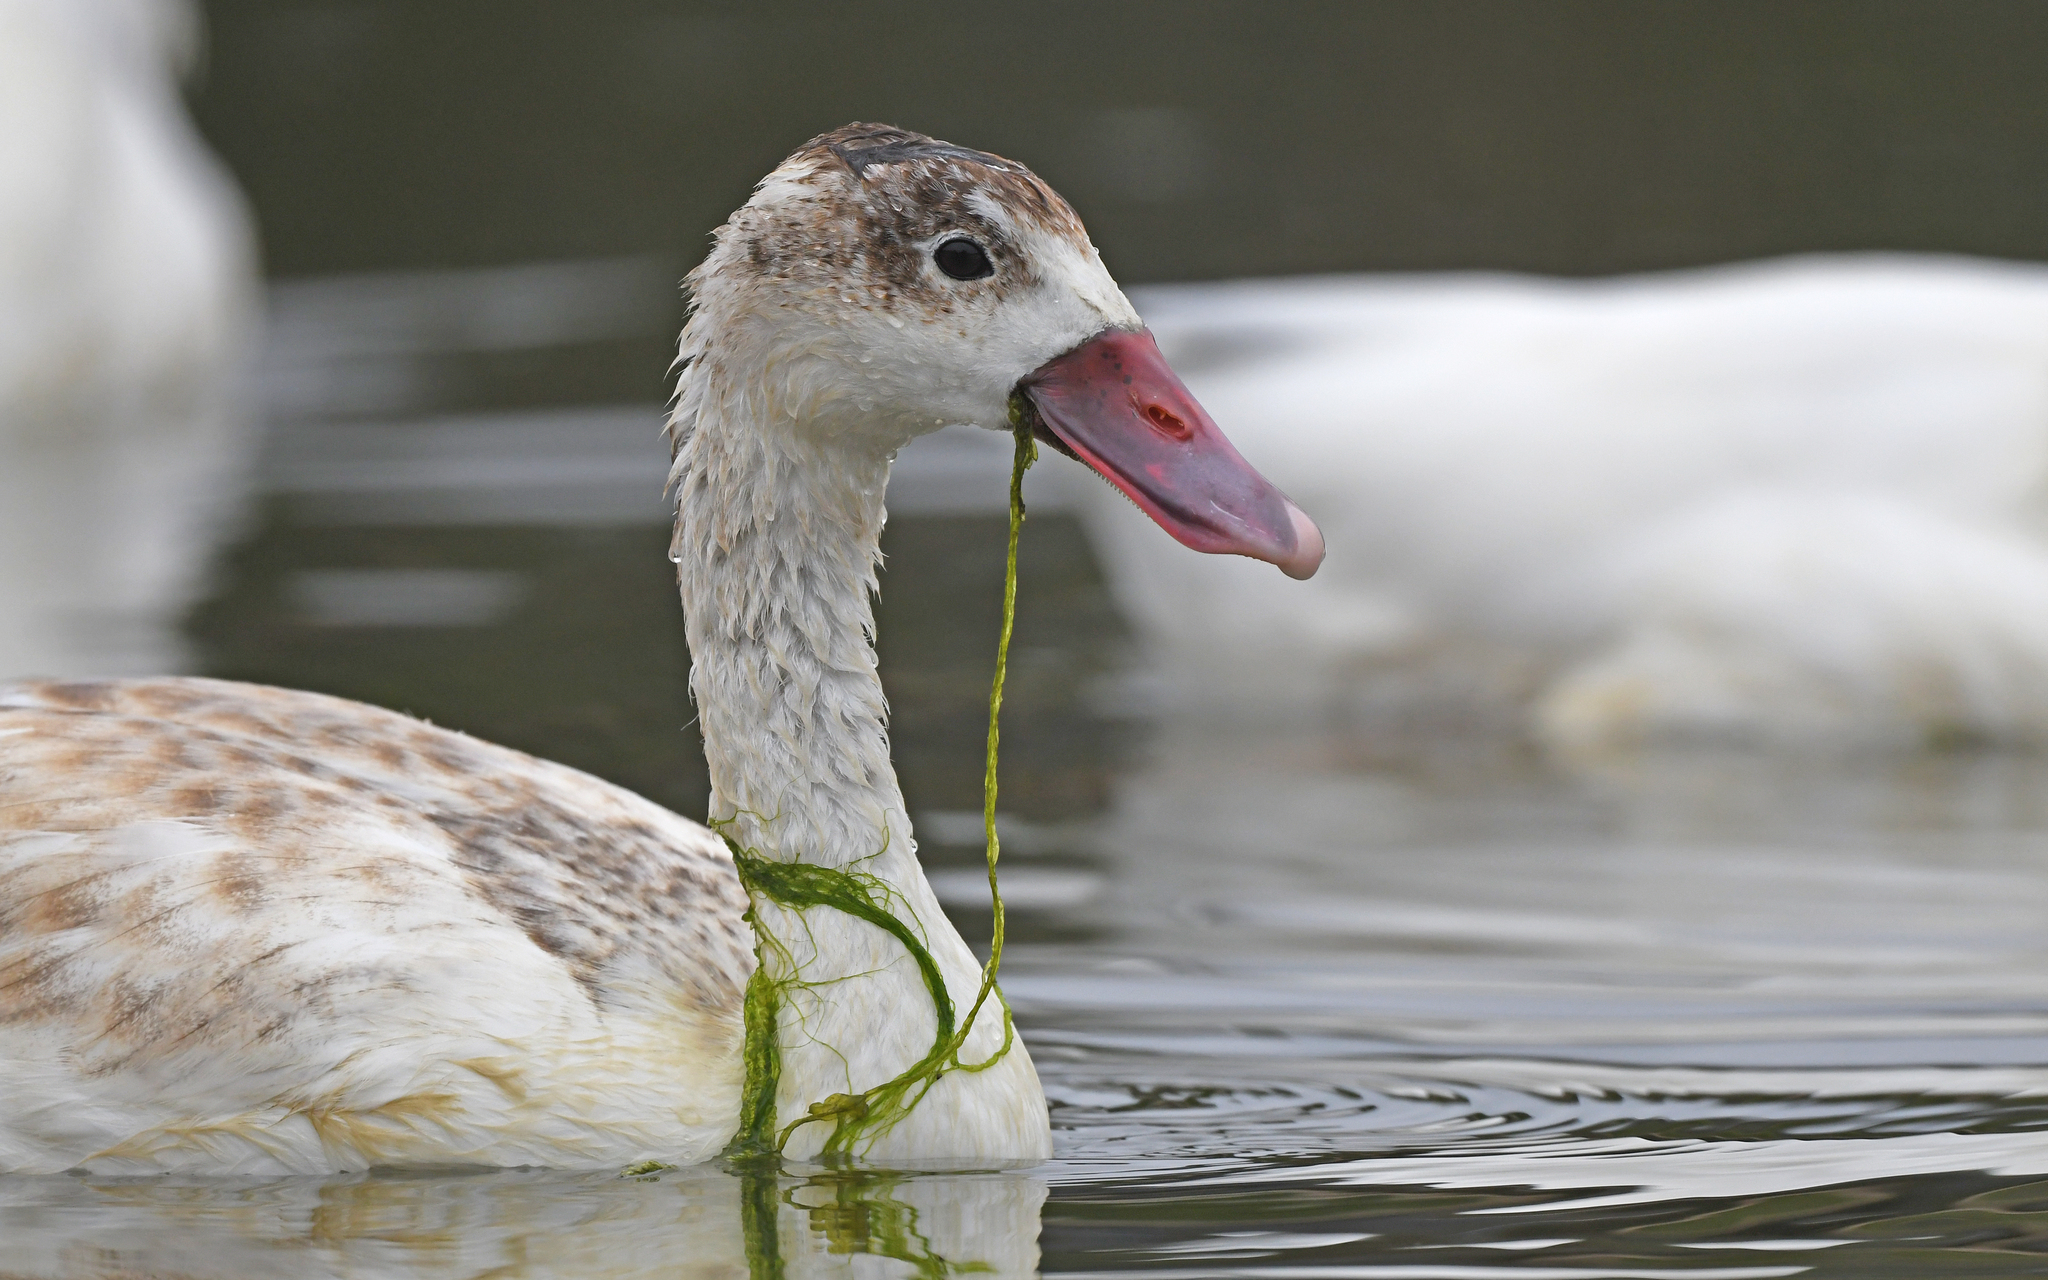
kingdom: Animalia
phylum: Chordata
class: Aves
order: Anseriformes
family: Anatidae
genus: Coscoroba
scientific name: Coscoroba coscoroba
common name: Coscoroba swan
